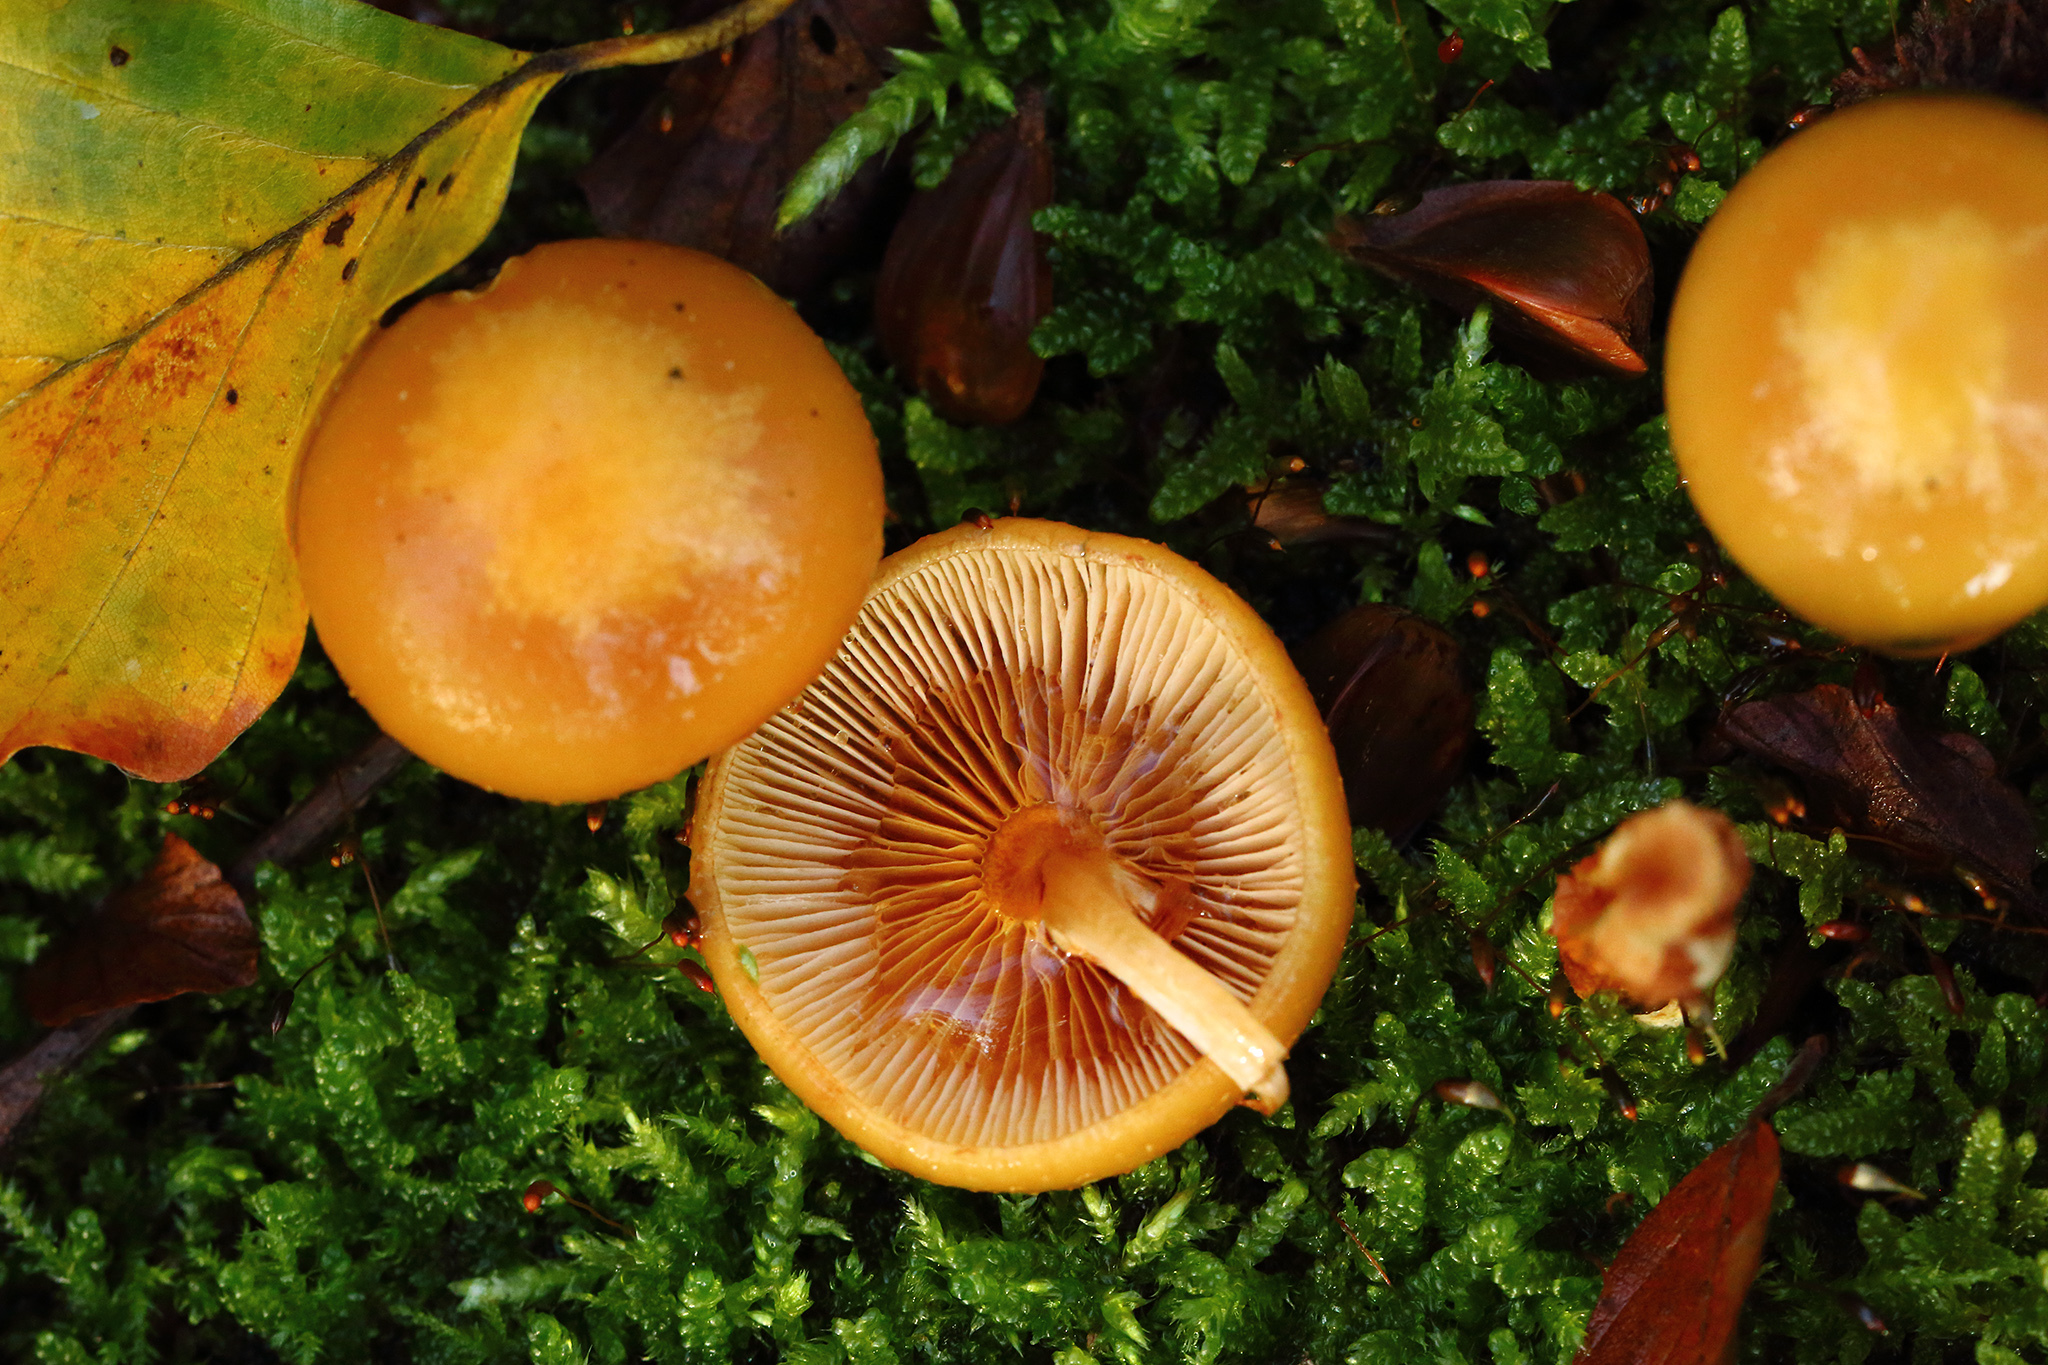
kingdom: Fungi
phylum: Basidiomycota
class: Agaricomycetes
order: Agaricales
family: Strophariaceae
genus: Kuehneromyces
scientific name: Kuehneromyces mutabilis
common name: Sheathed woodtuft
